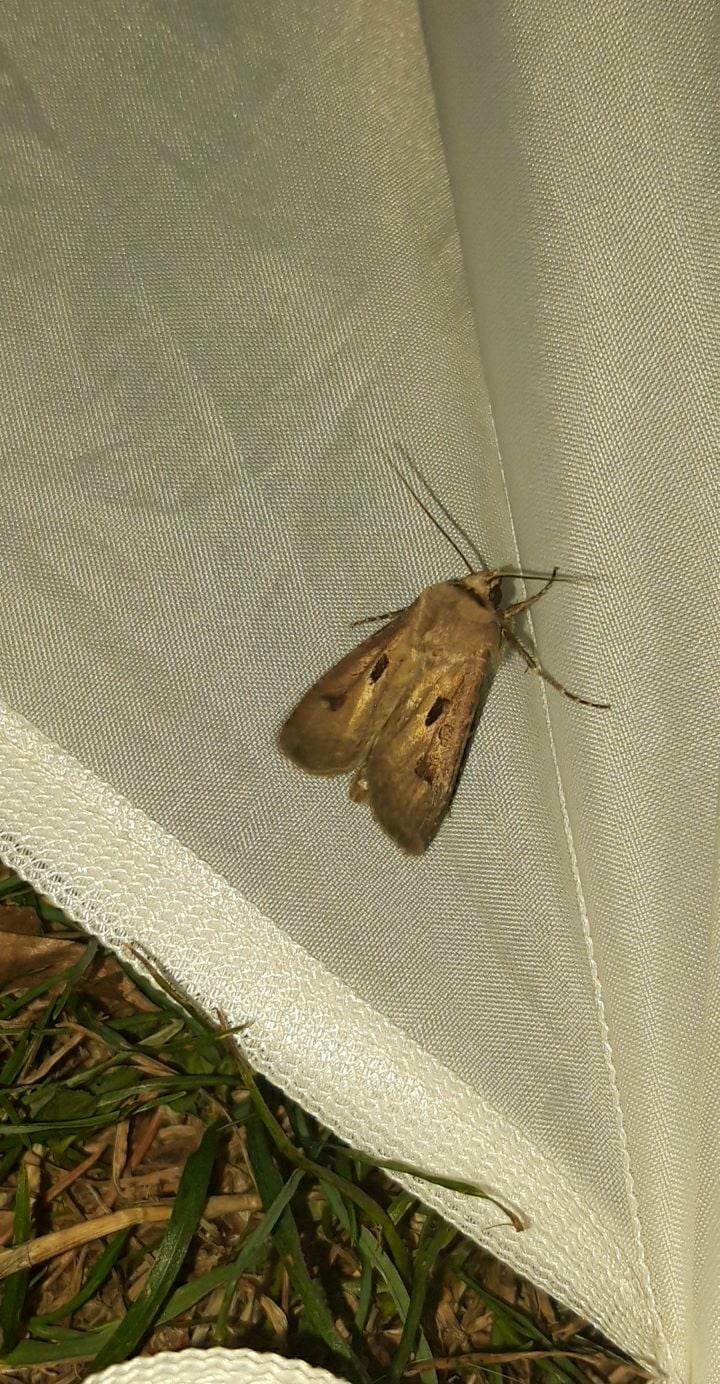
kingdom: Animalia
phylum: Arthropoda
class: Insecta
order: Lepidoptera
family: Noctuidae
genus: Agrotis
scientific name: Agrotis exclamationis
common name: Heart and dart
